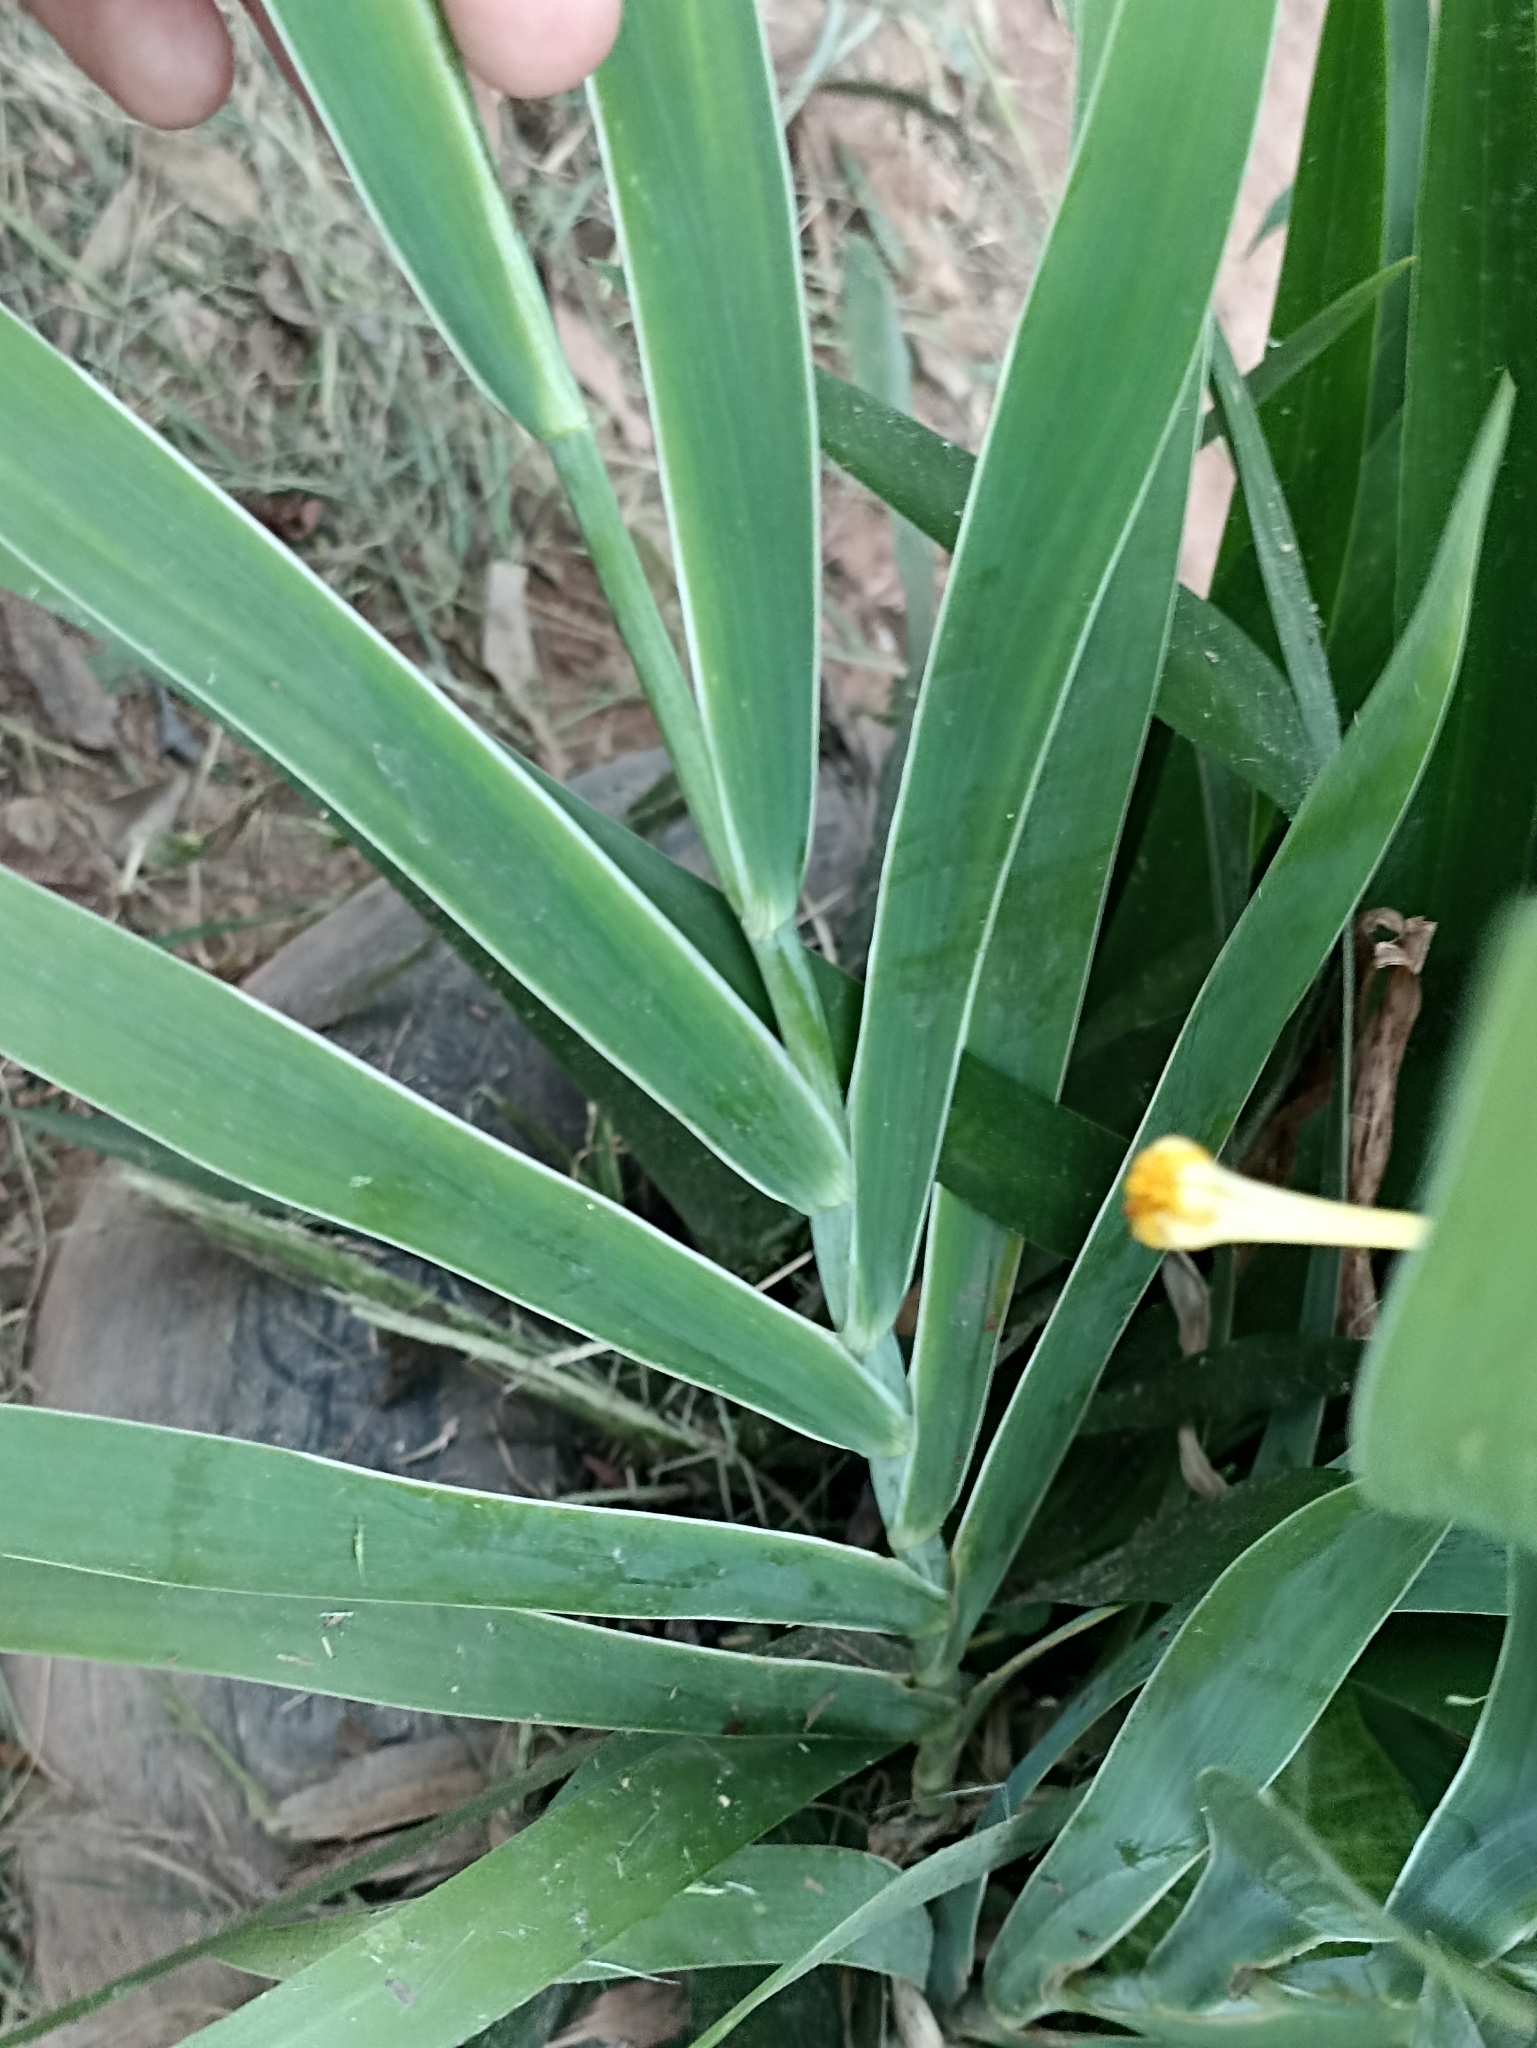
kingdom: Plantae
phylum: Tracheophyta
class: Liliopsida
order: Asparagales
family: Iridaceae
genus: Iris
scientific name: Iris domestica
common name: Belamcanda
